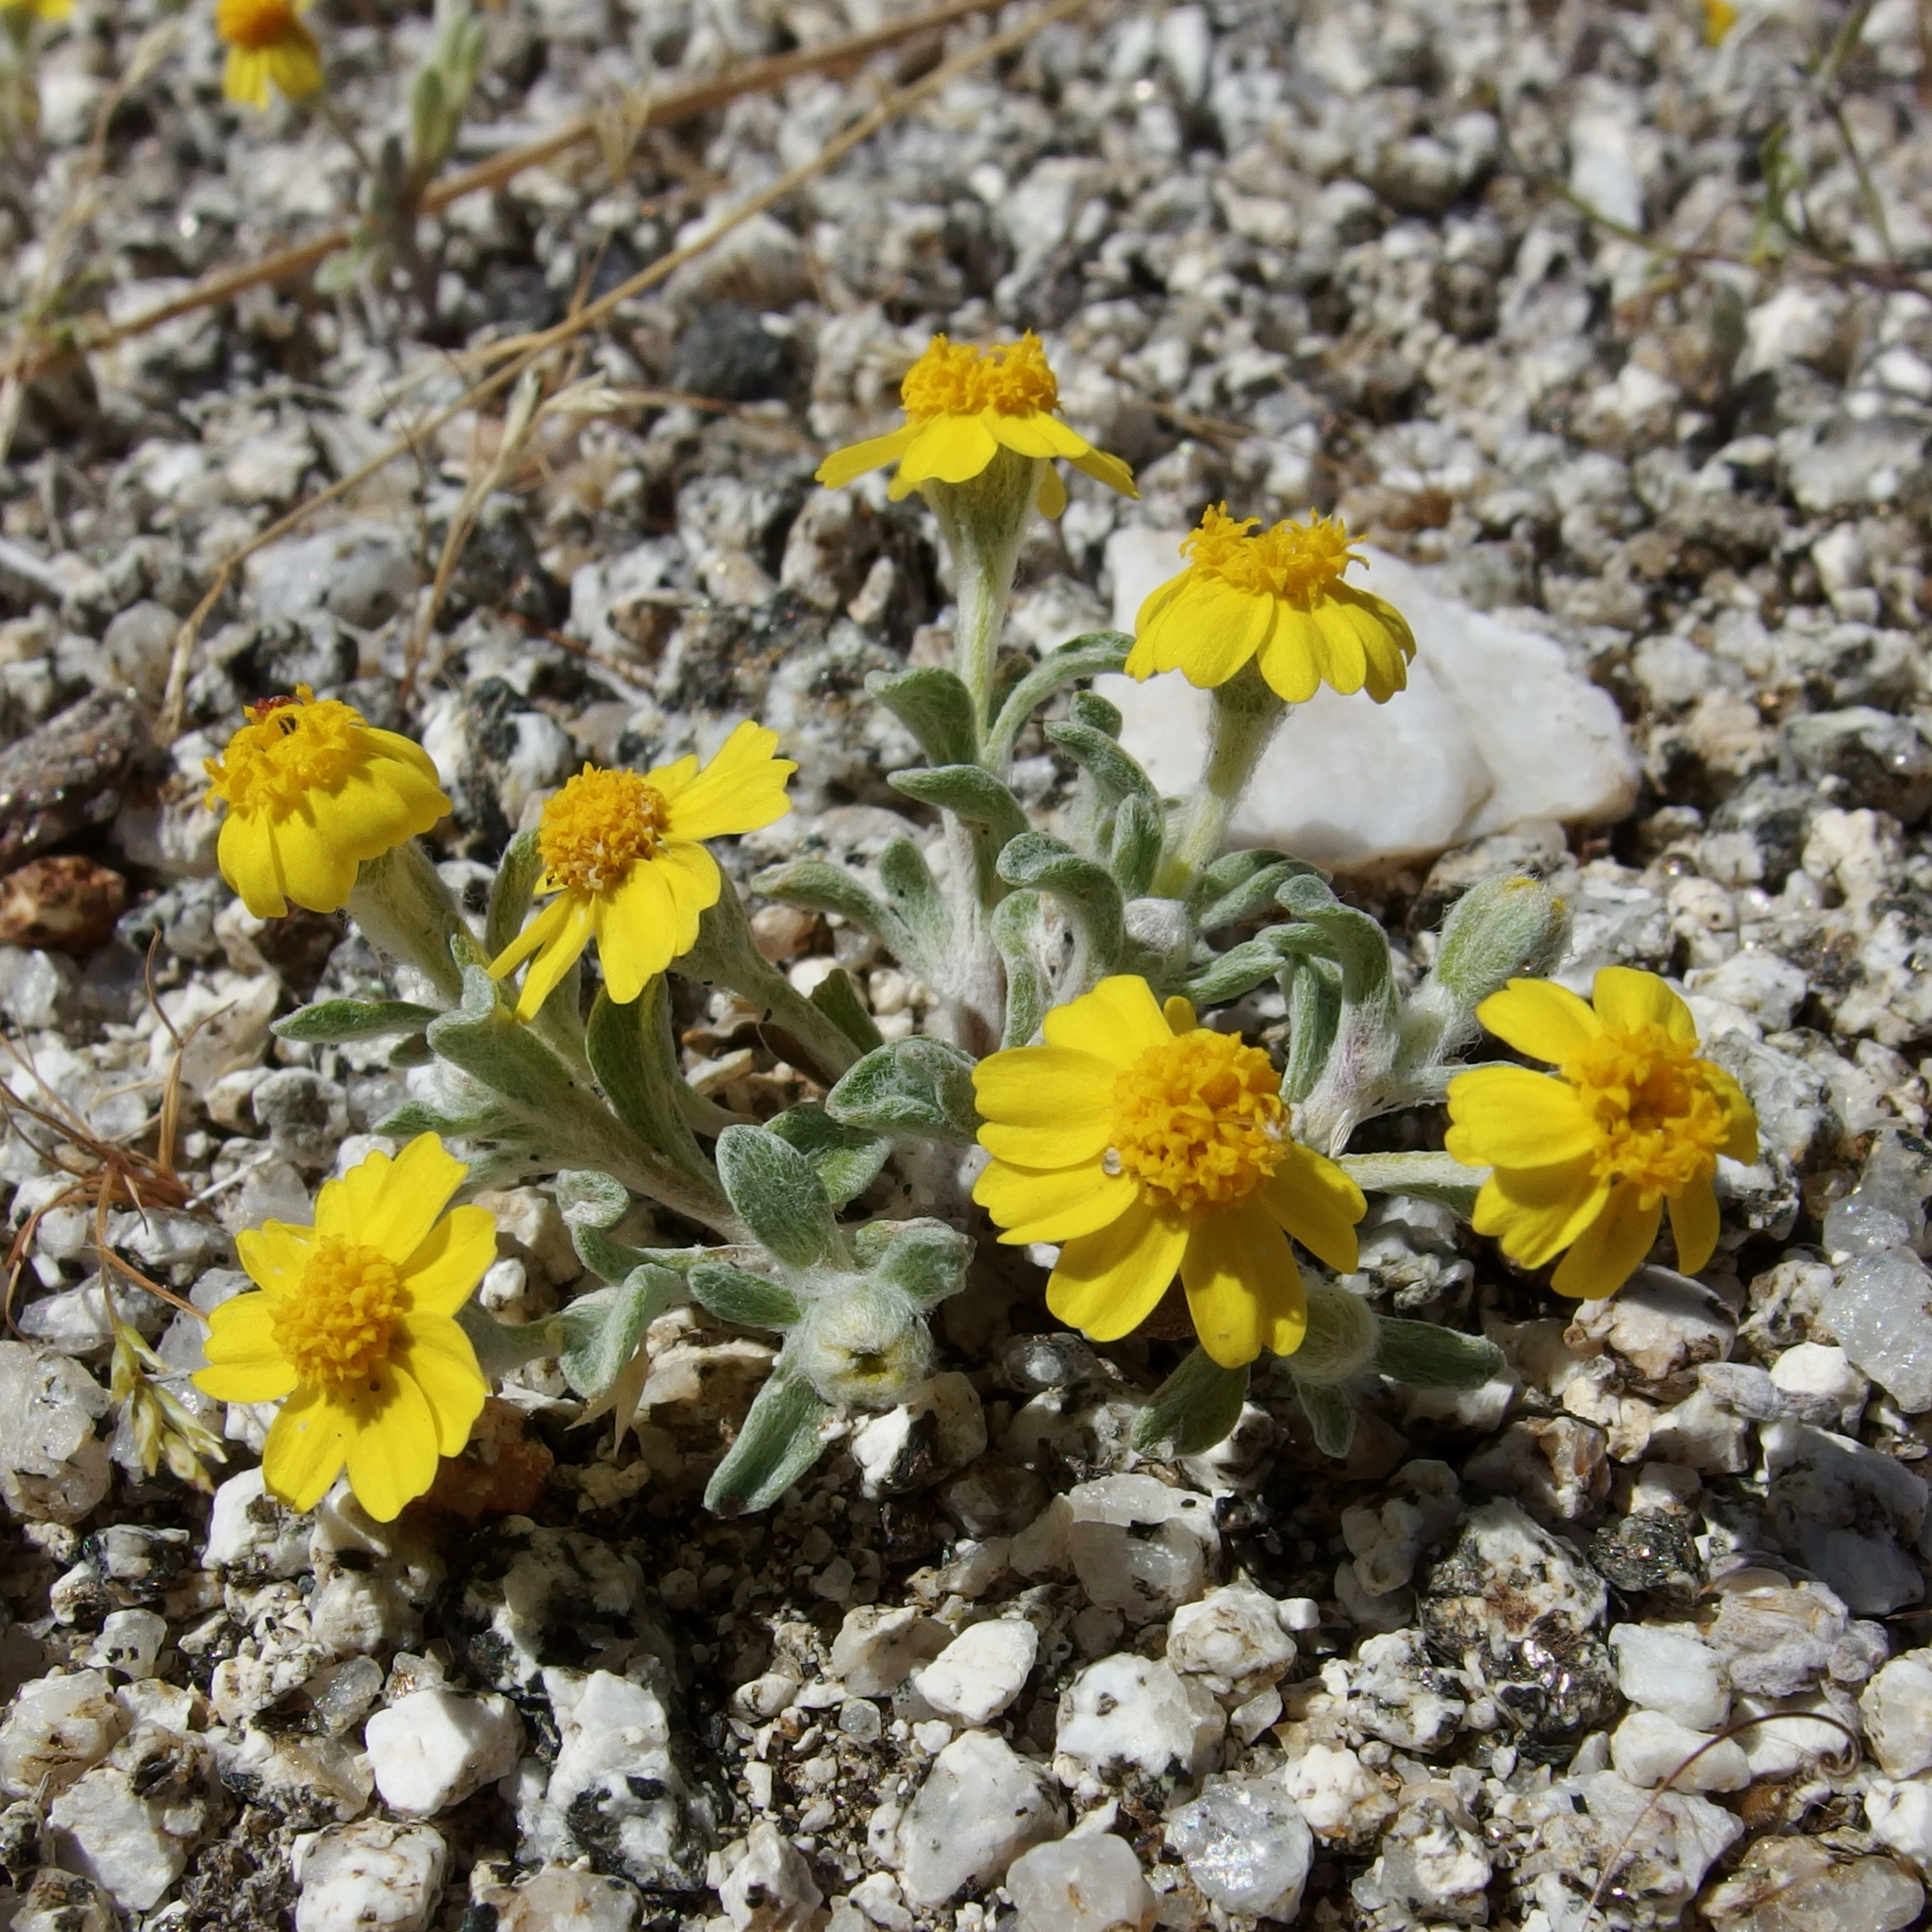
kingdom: Plantae
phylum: Tracheophyta
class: Magnoliopsida
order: Asterales
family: Asteraceae
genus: Eriophyllum
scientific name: Eriophyllum wallacei
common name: Wallace's woolly daisy
